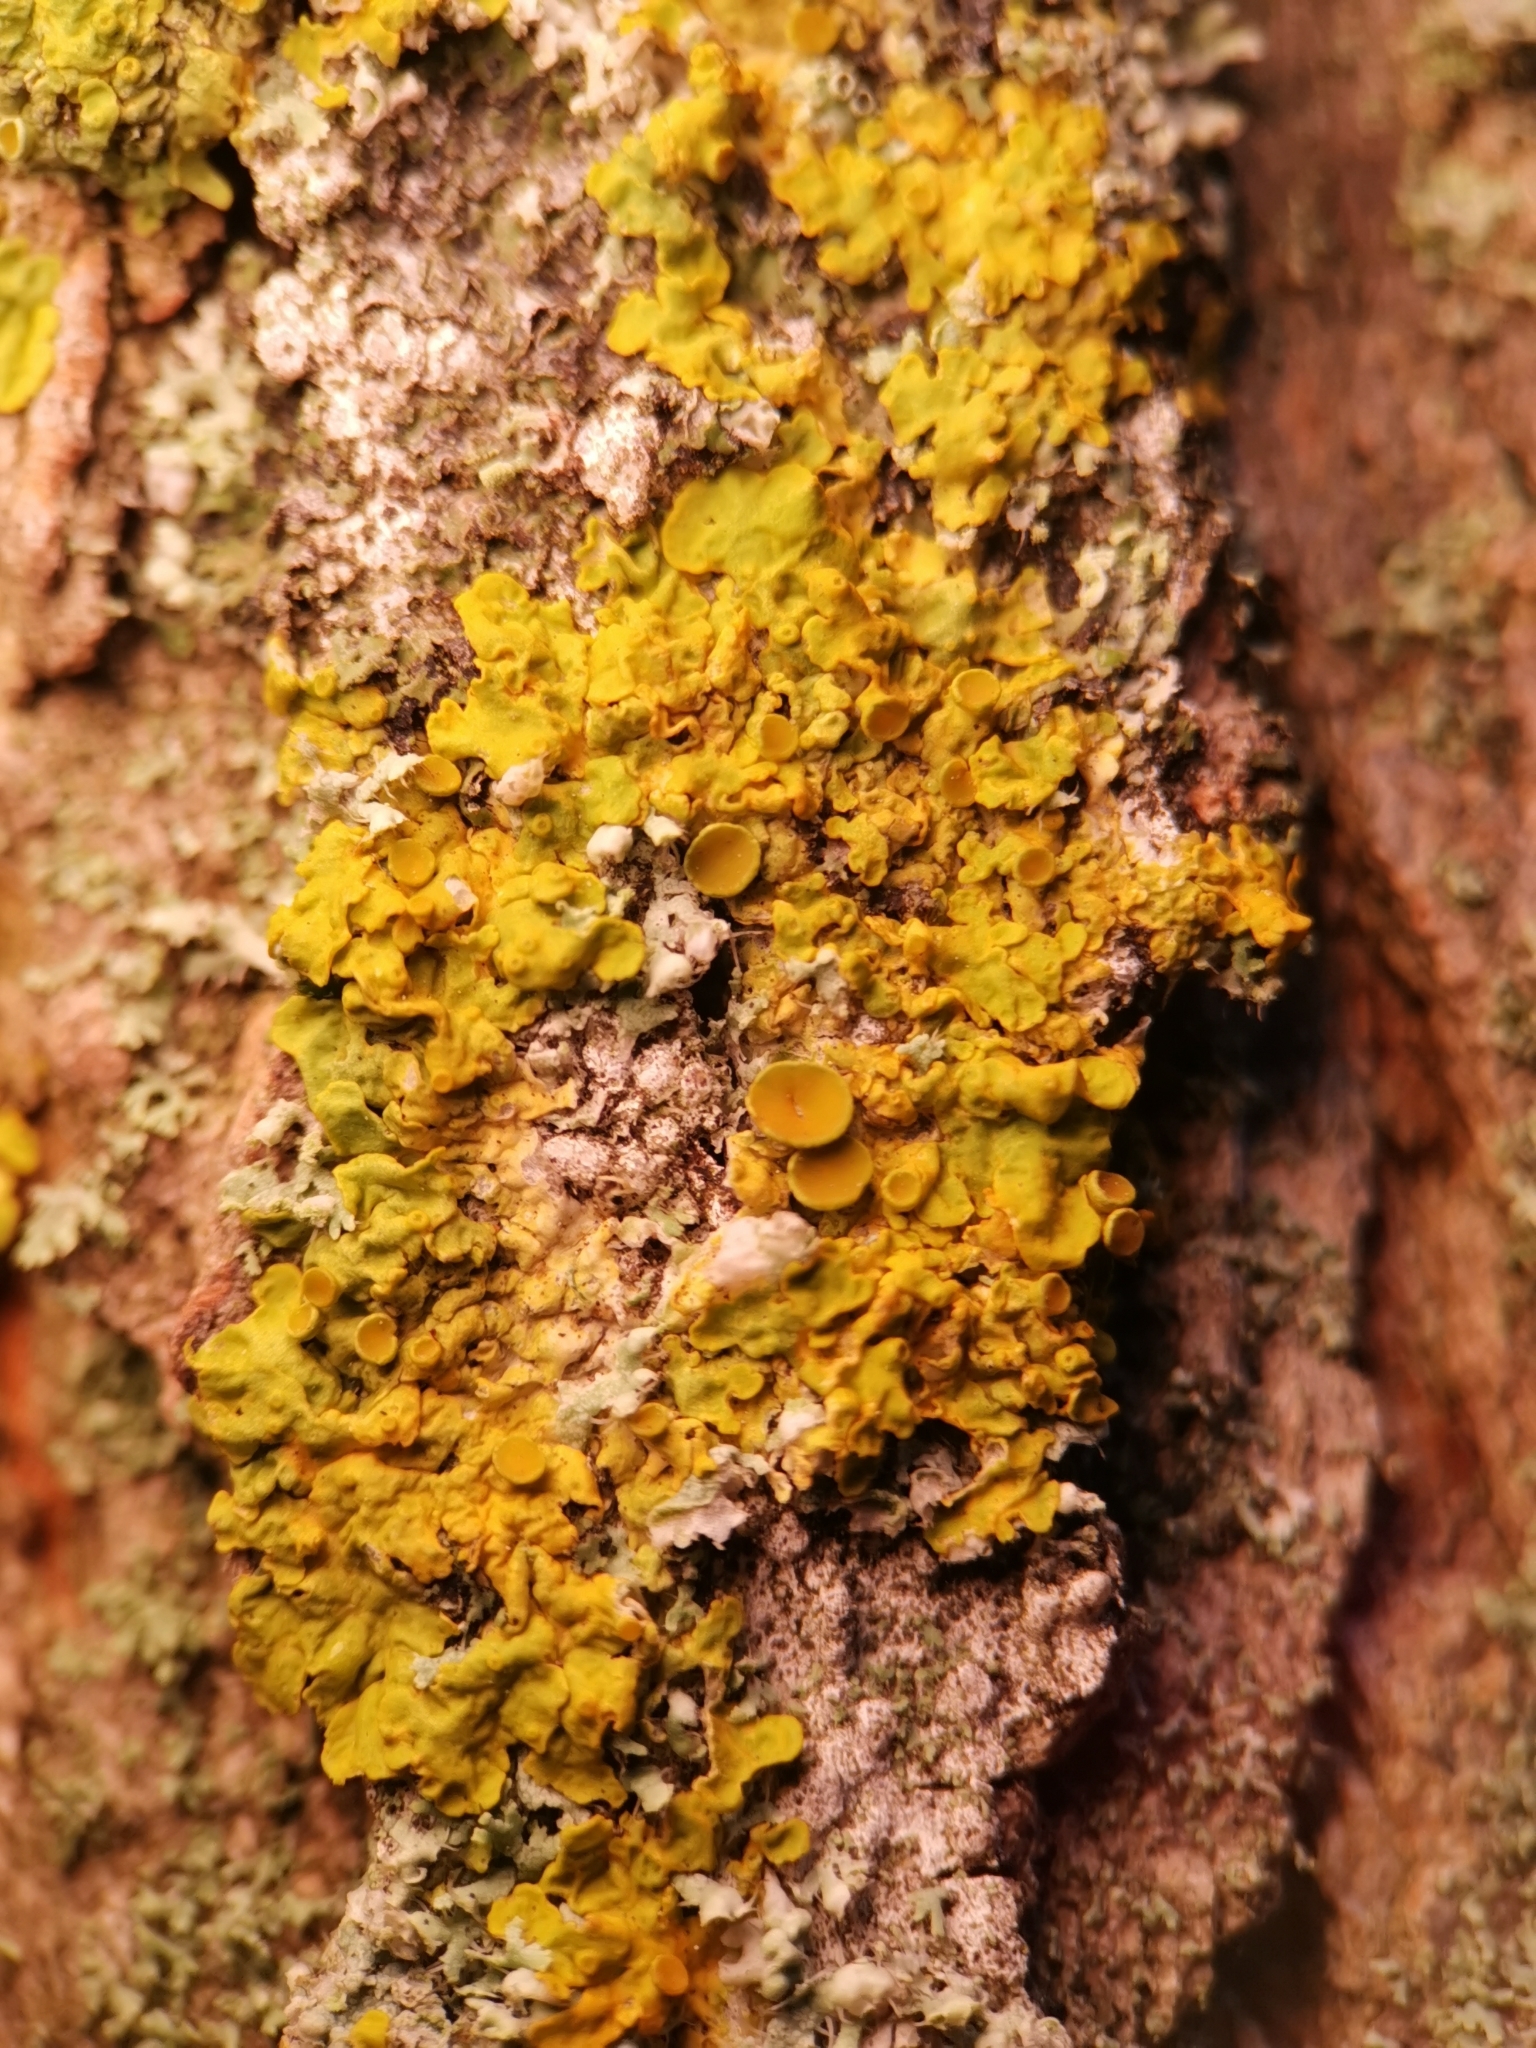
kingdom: Fungi
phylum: Ascomycota
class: Lecanoromycetes
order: Teloschistales
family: Teloschistaceae
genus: Xanthoria
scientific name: Xanthoria parietina
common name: Common orange lichen
